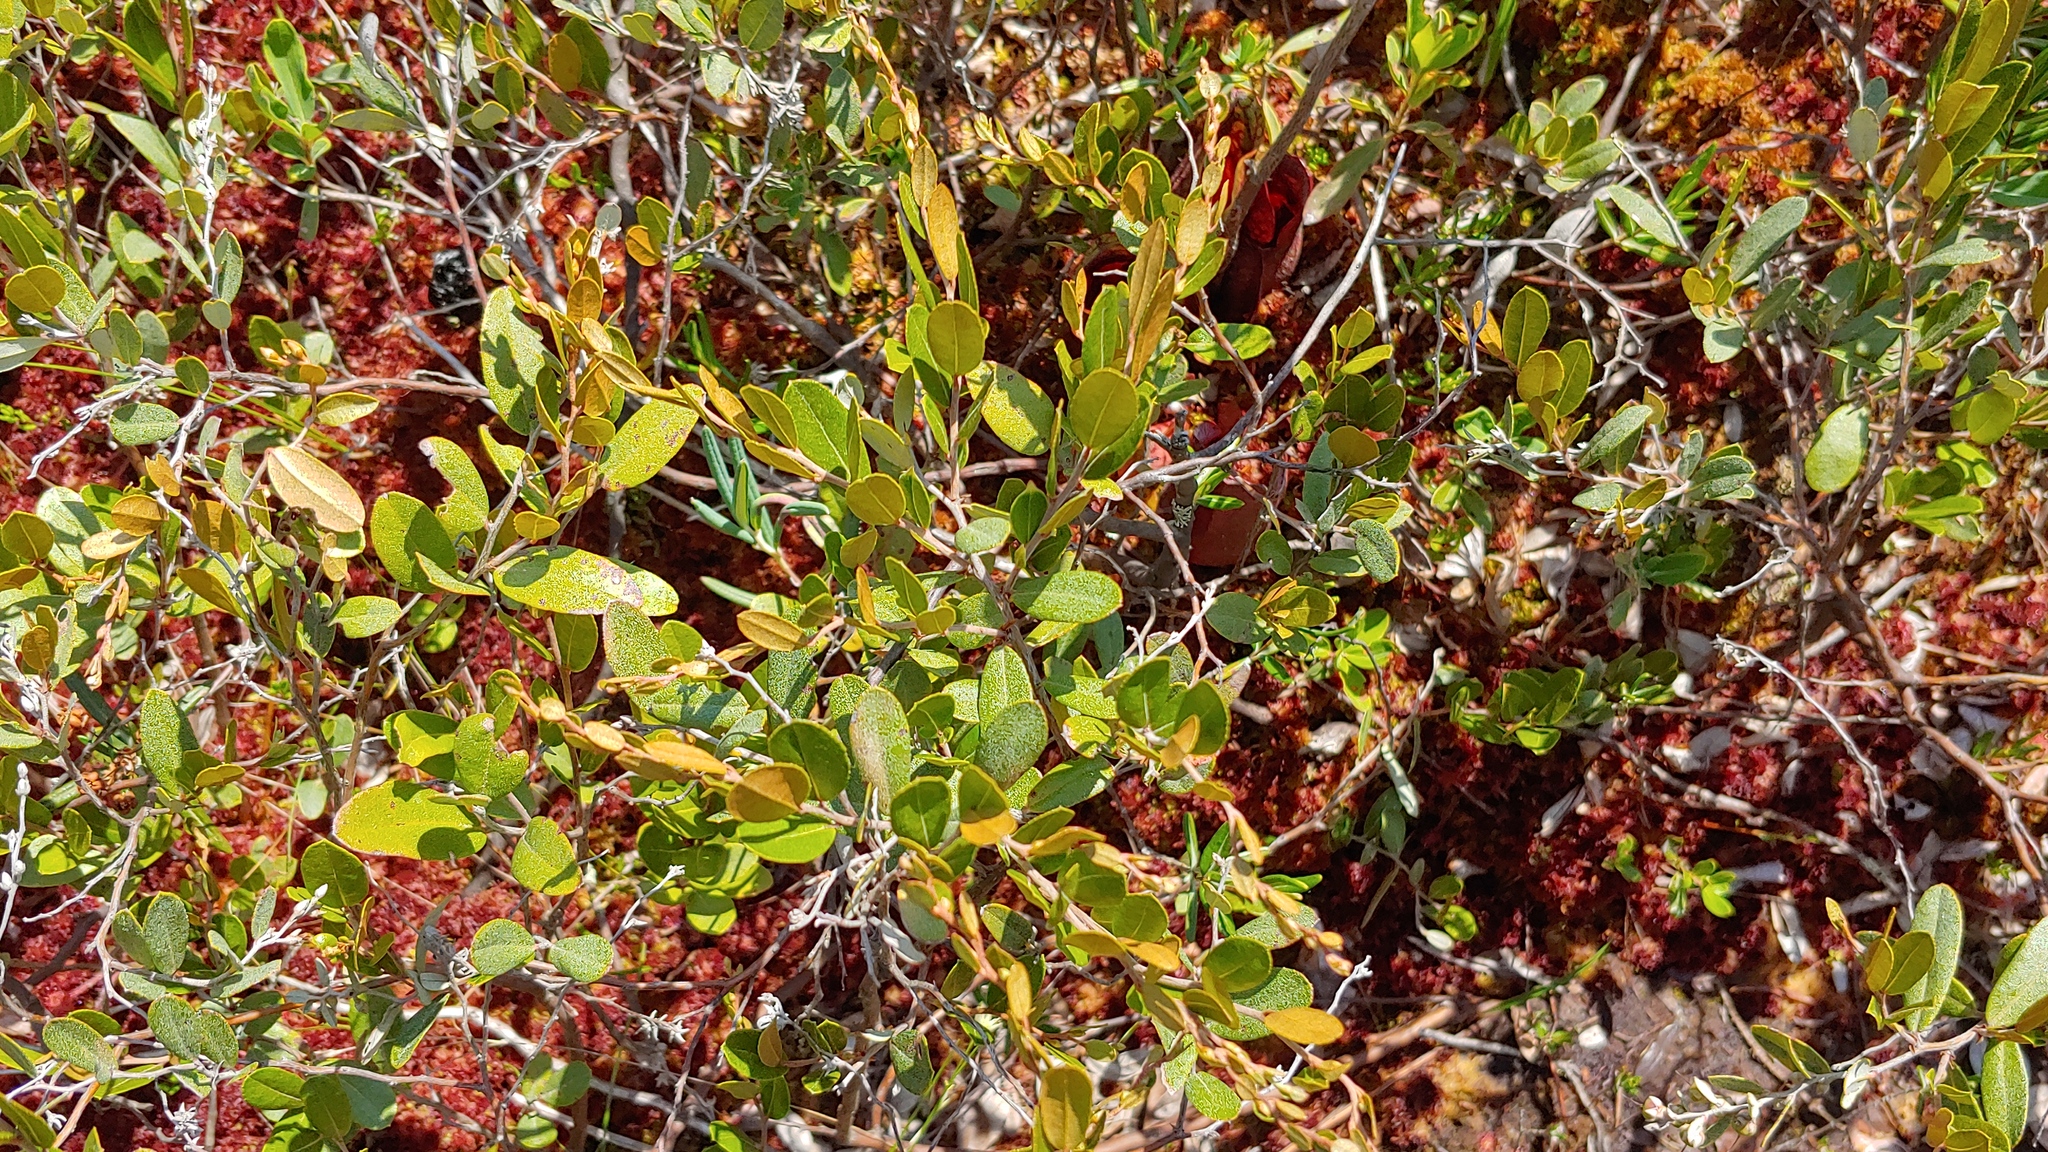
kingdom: Plantae
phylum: Tracheophyta
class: Magnoliopsida
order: Ericales
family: Ericaceae
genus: Chamaedaphne
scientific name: Chamaedaphne calyculata
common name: Leatherleaf
